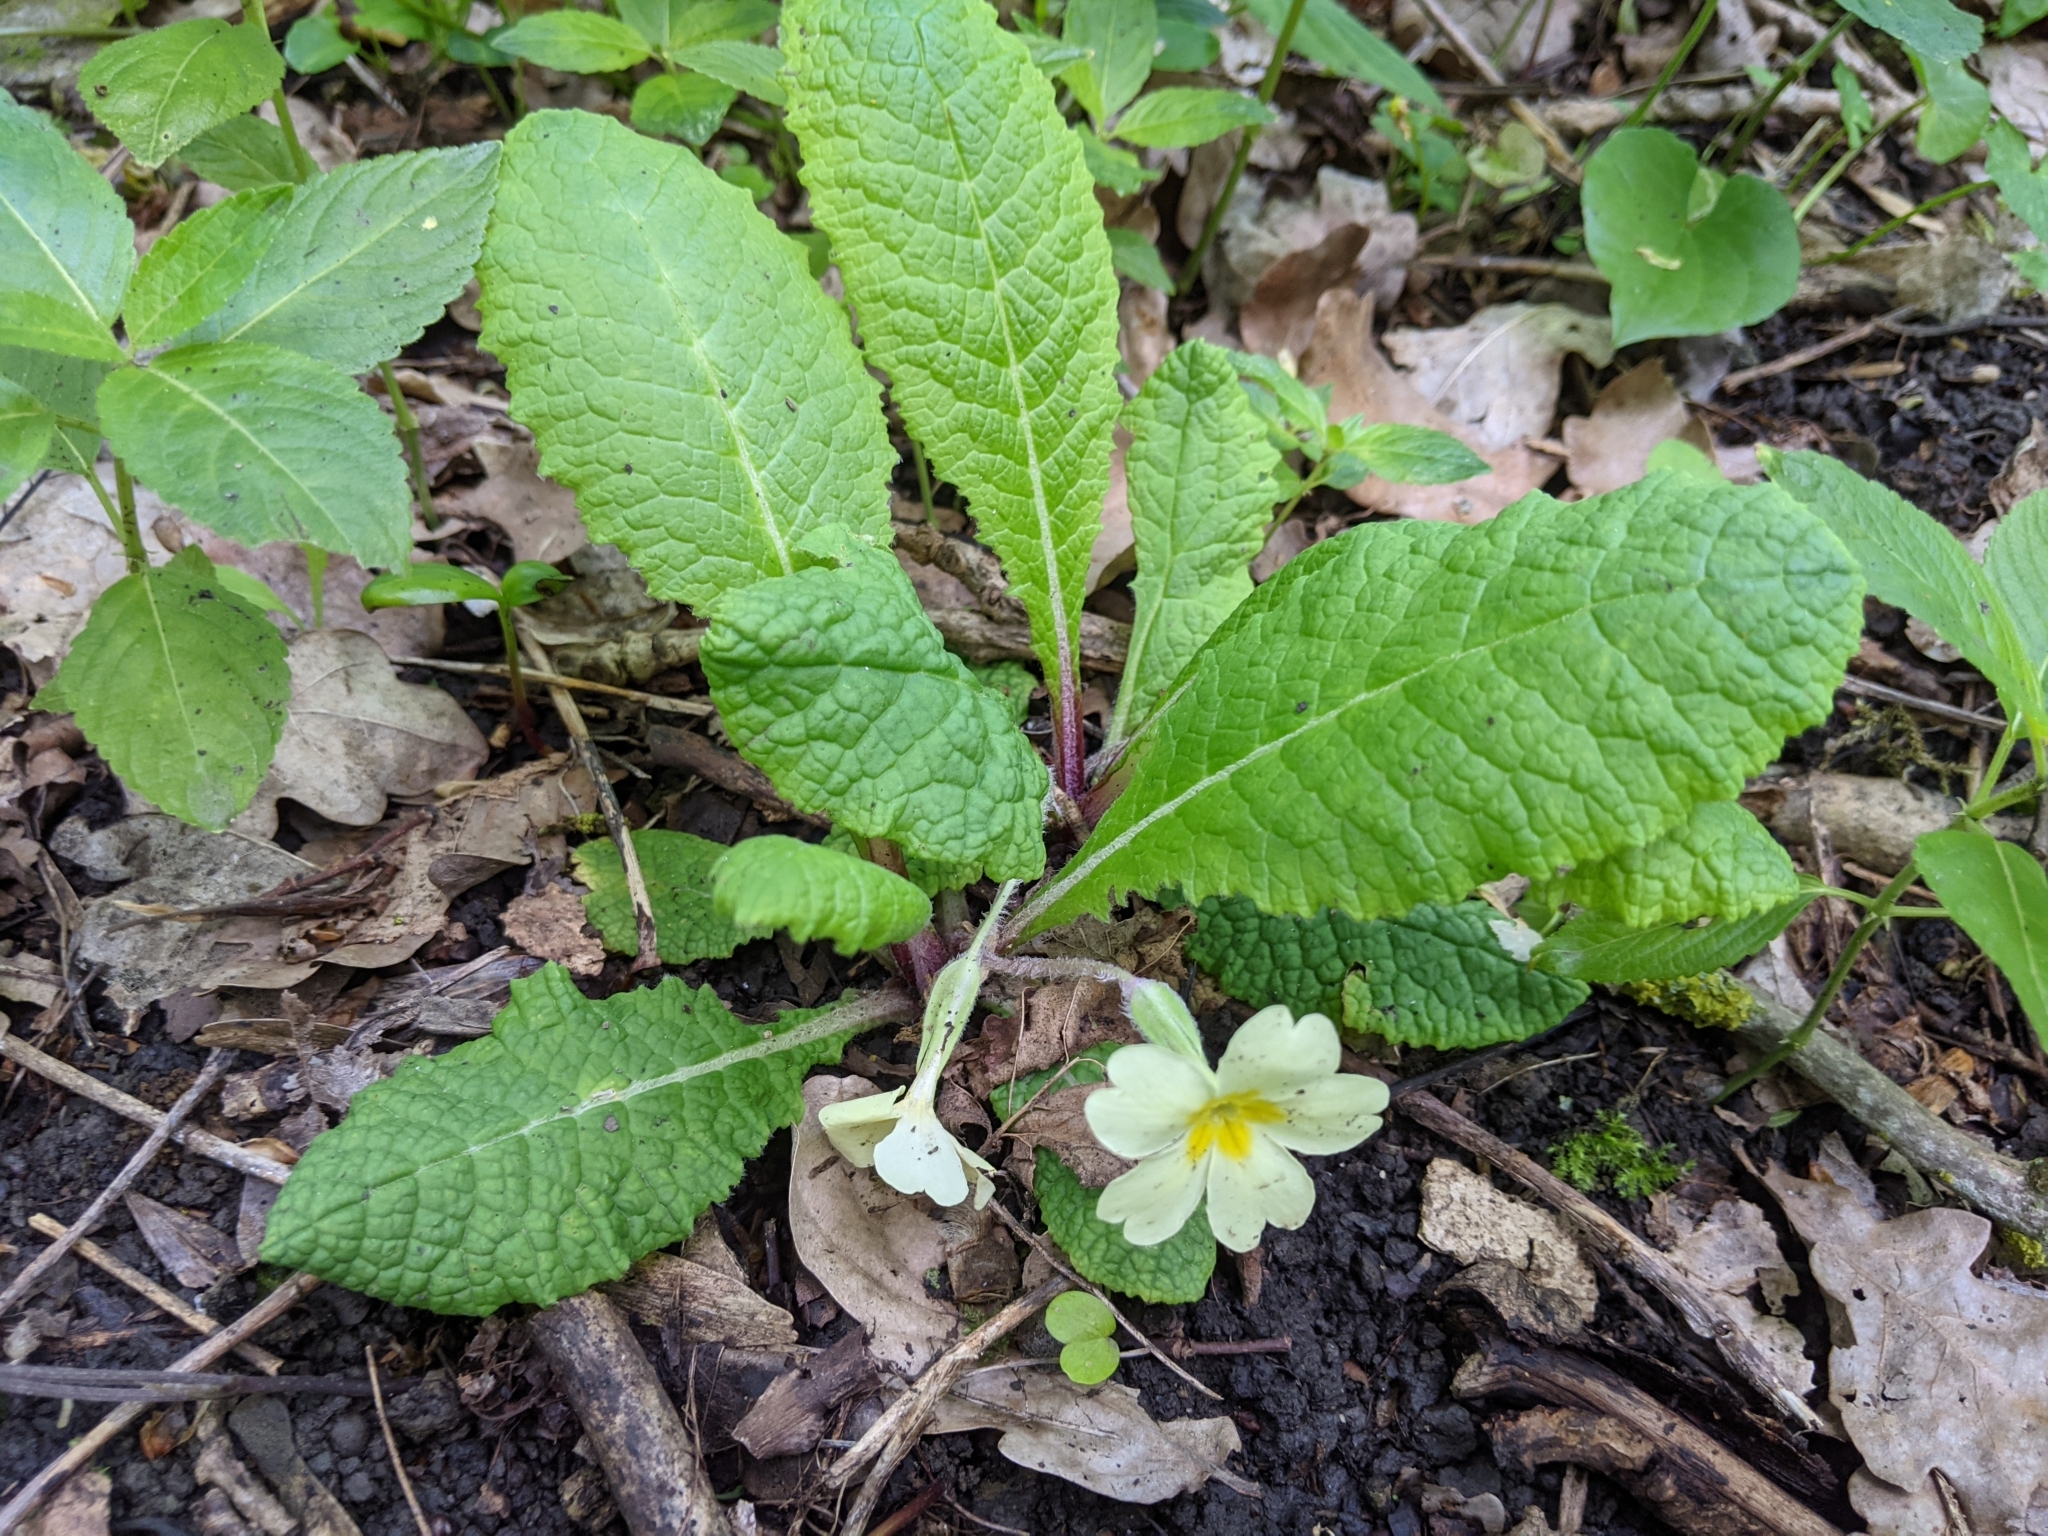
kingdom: Plantae
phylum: Tracheophyta
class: Magnoliopsida
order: Ericales
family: Primulaceae
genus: Primula
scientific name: Primula vulgaris
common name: Primrose
